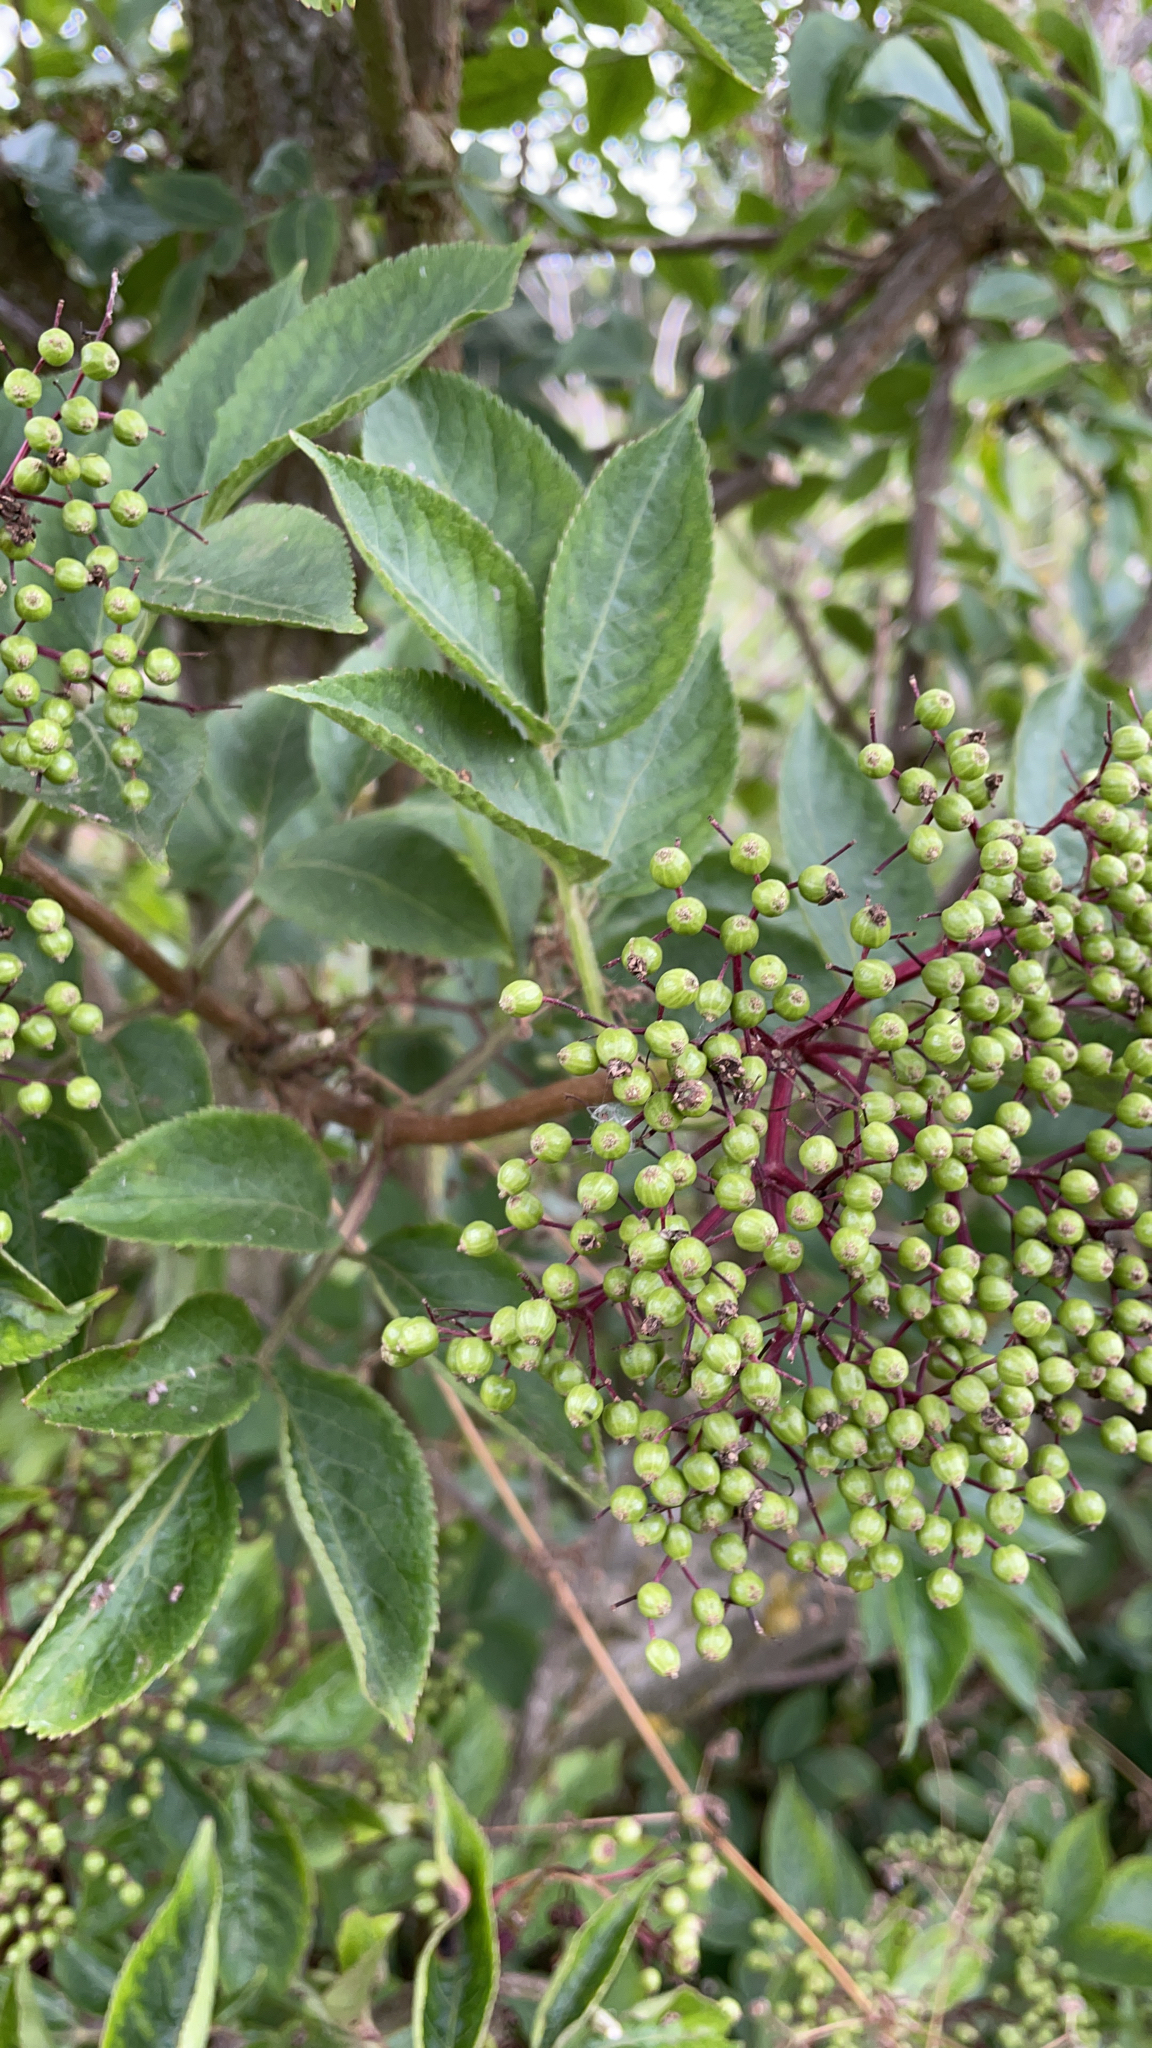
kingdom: Plantae
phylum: Tracheophyta
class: Magnoliopsida
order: Dipsacales
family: Viburnaceae
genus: Sambucus
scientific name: Sambucus nigra
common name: Elder
